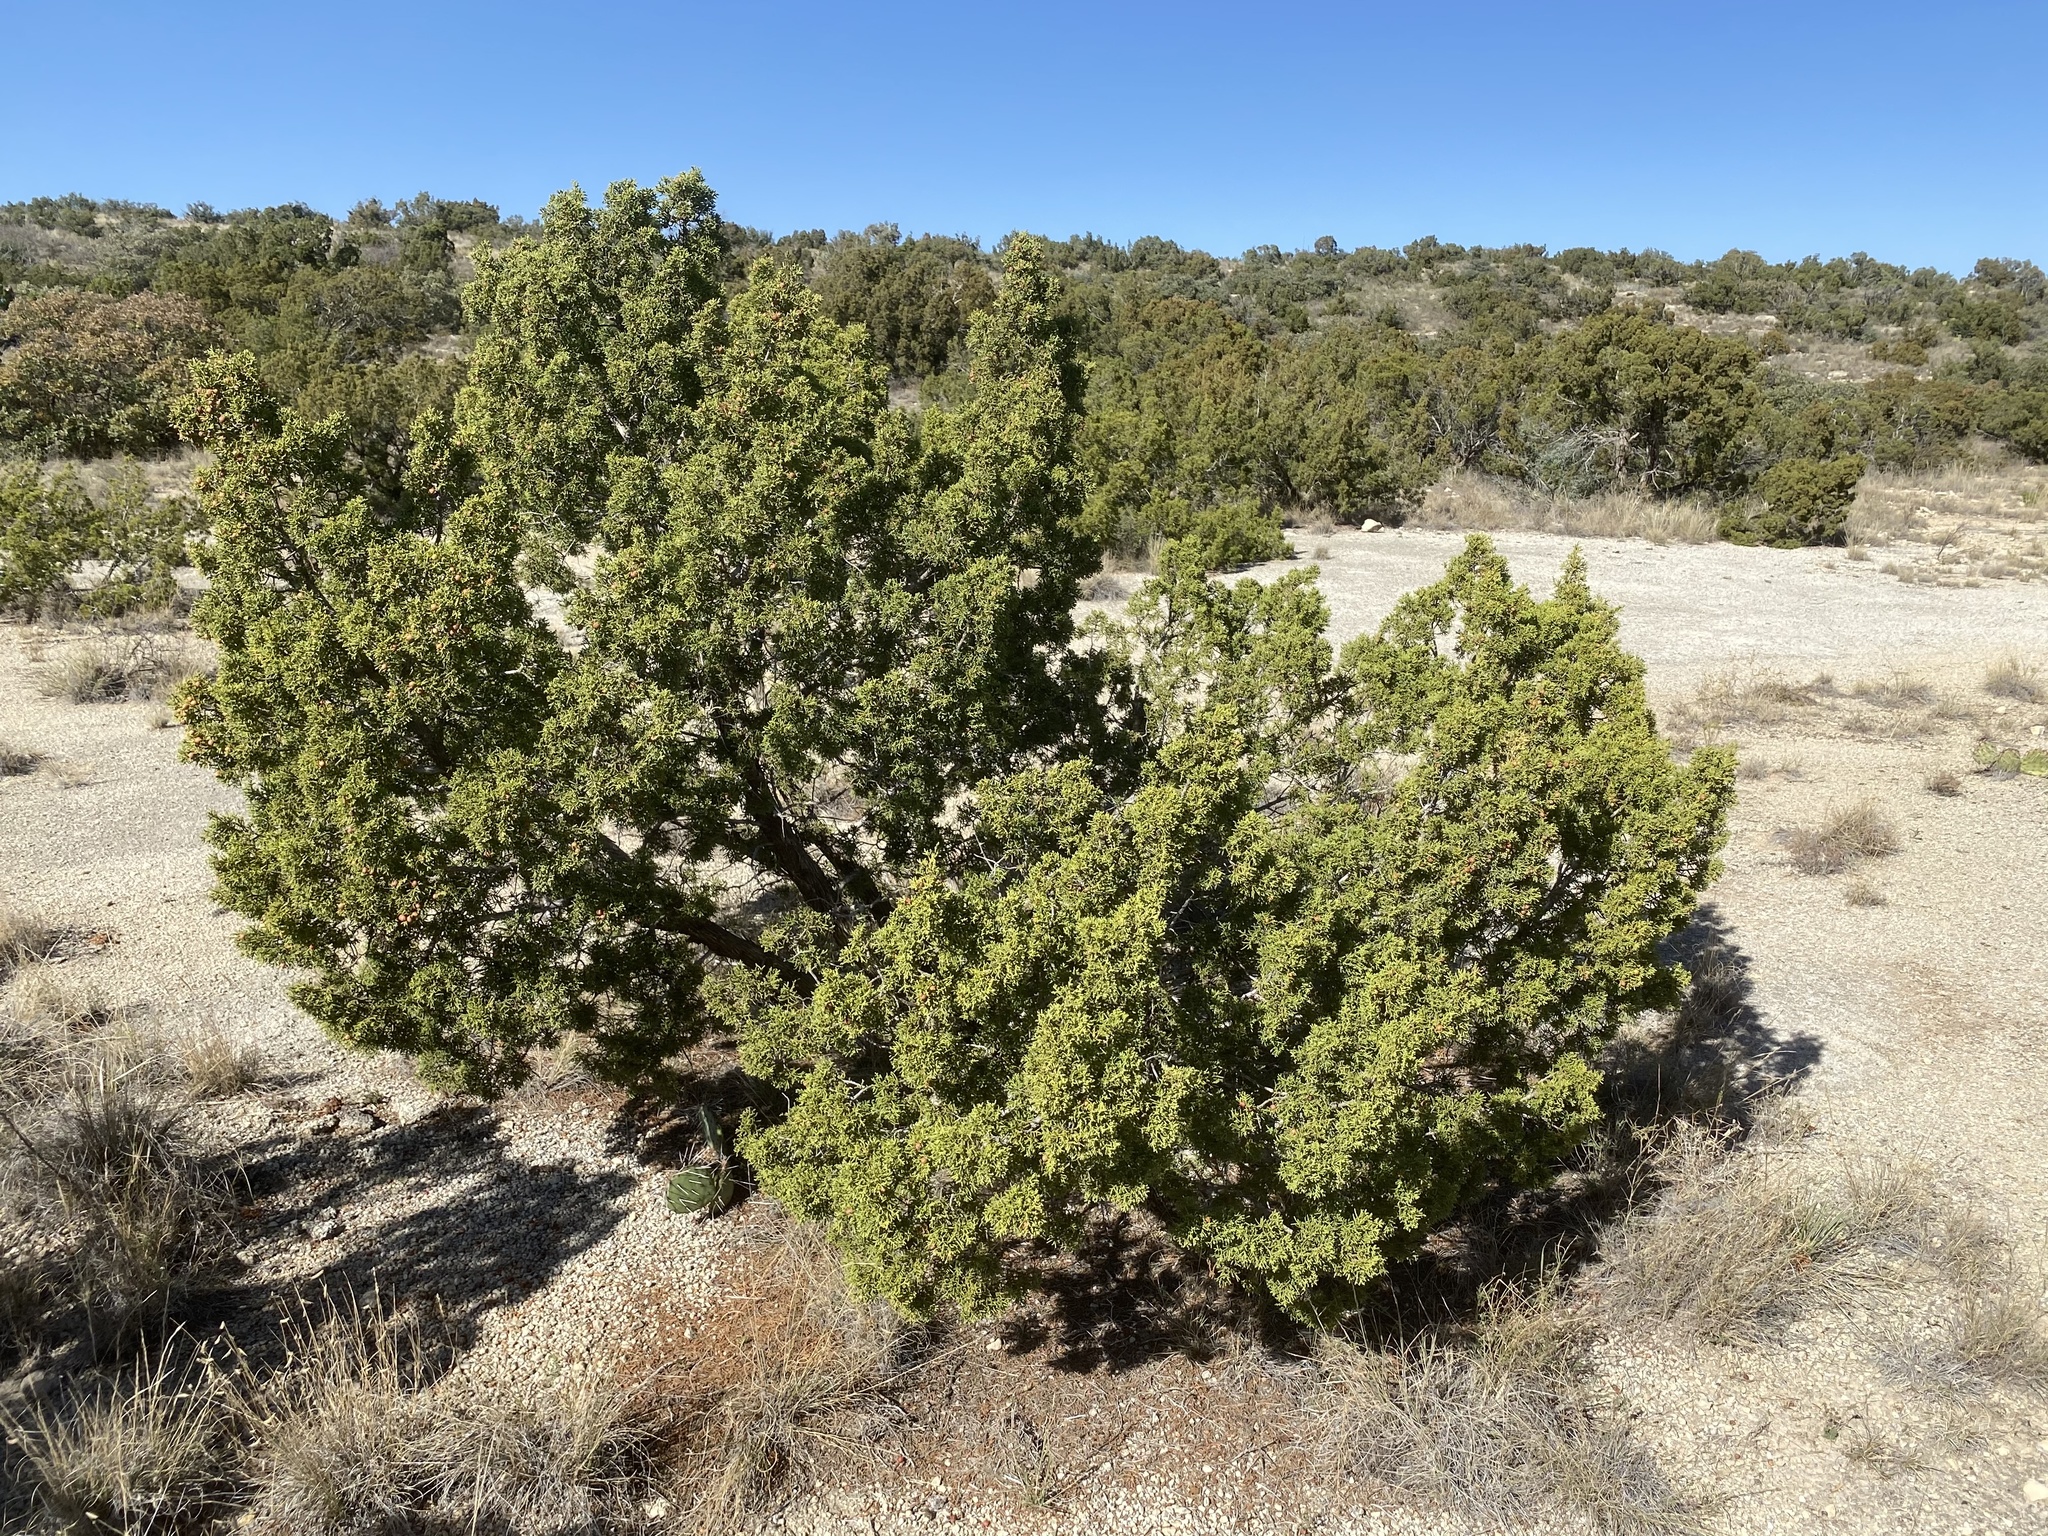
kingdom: Plantae
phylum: Tracheophyta
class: Pinopsida
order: Pinales
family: Cupressaceae
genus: Juniperus
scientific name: Juniperus pinchotii
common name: Pinchot juniper
